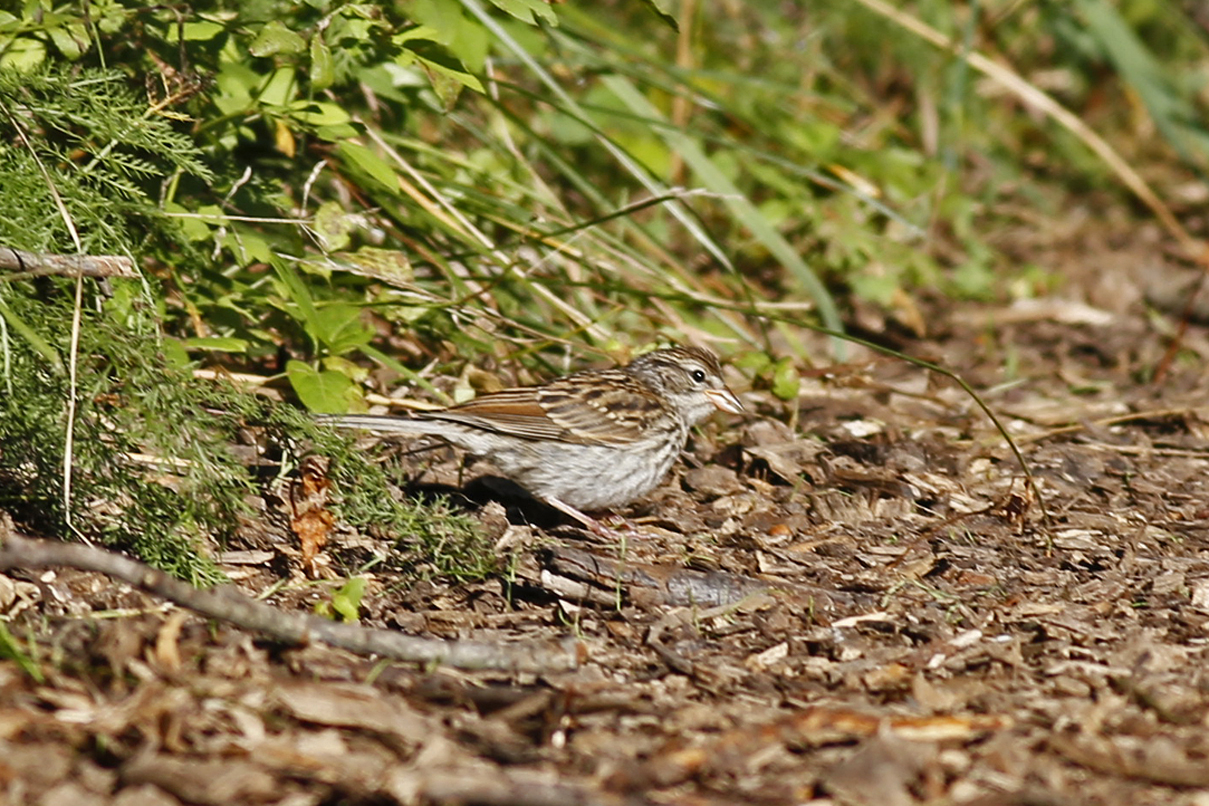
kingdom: Animalia
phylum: Chordata
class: Aves
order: Passeriformes
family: Passerellidae
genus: Spizella
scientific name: Spizella passerina
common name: Chipping sparrow
